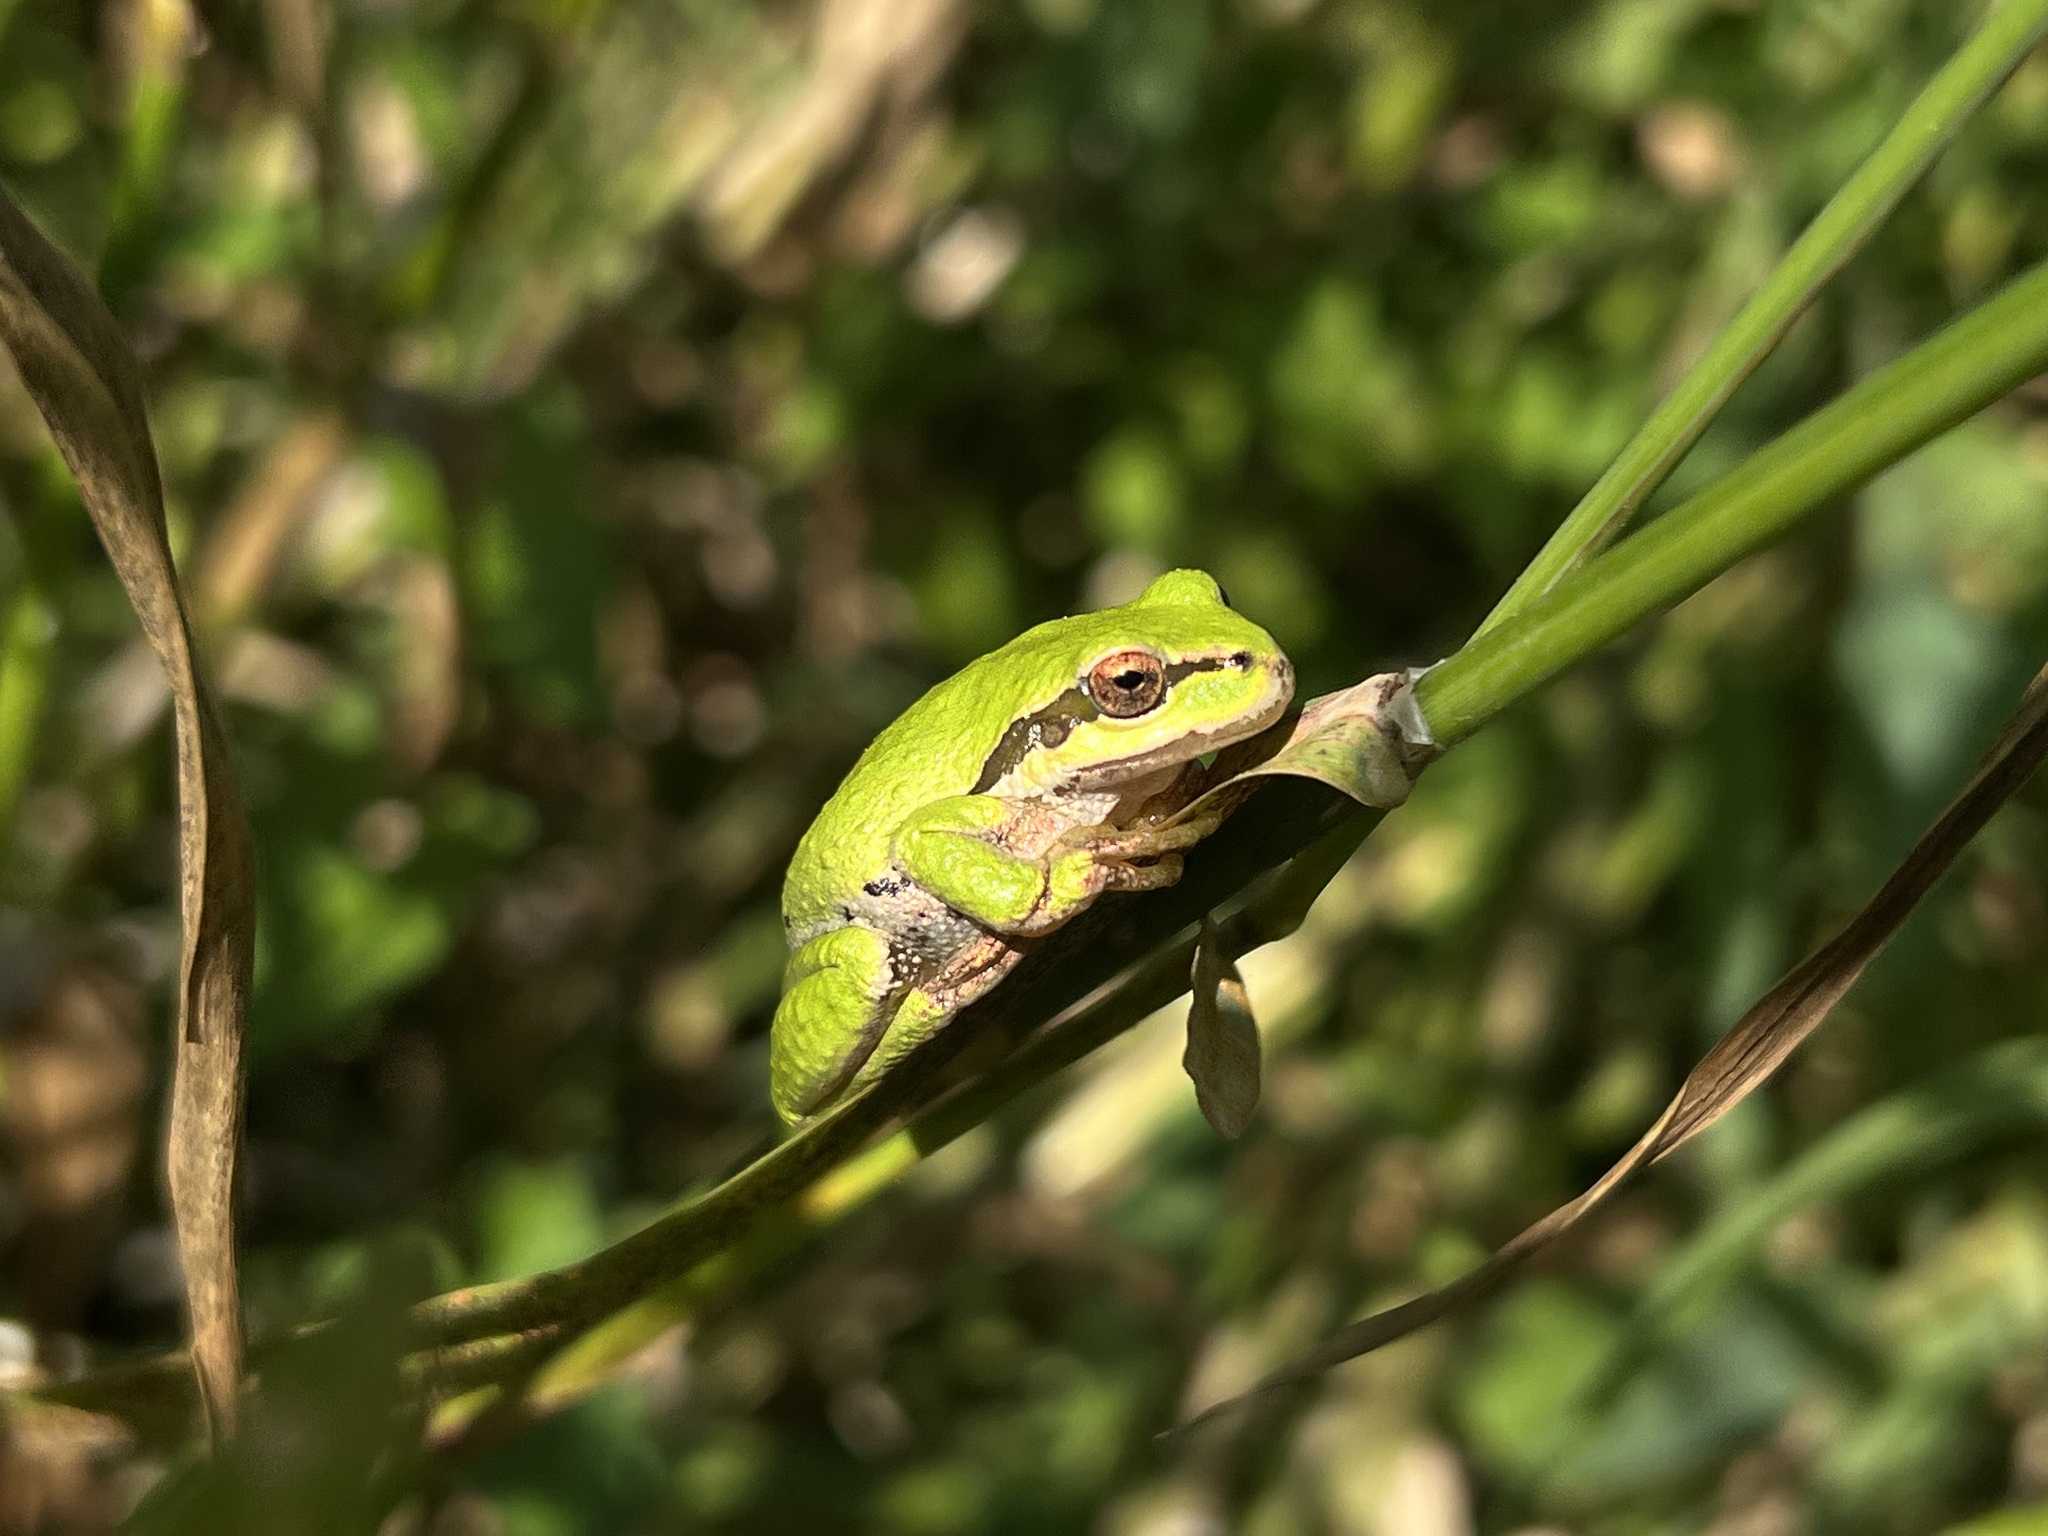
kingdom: Animalia
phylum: Chordata
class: Amphibia
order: Anura
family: Hylidae
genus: Pseudacris
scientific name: Pseudacris regilla
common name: Pacific chorus frog
